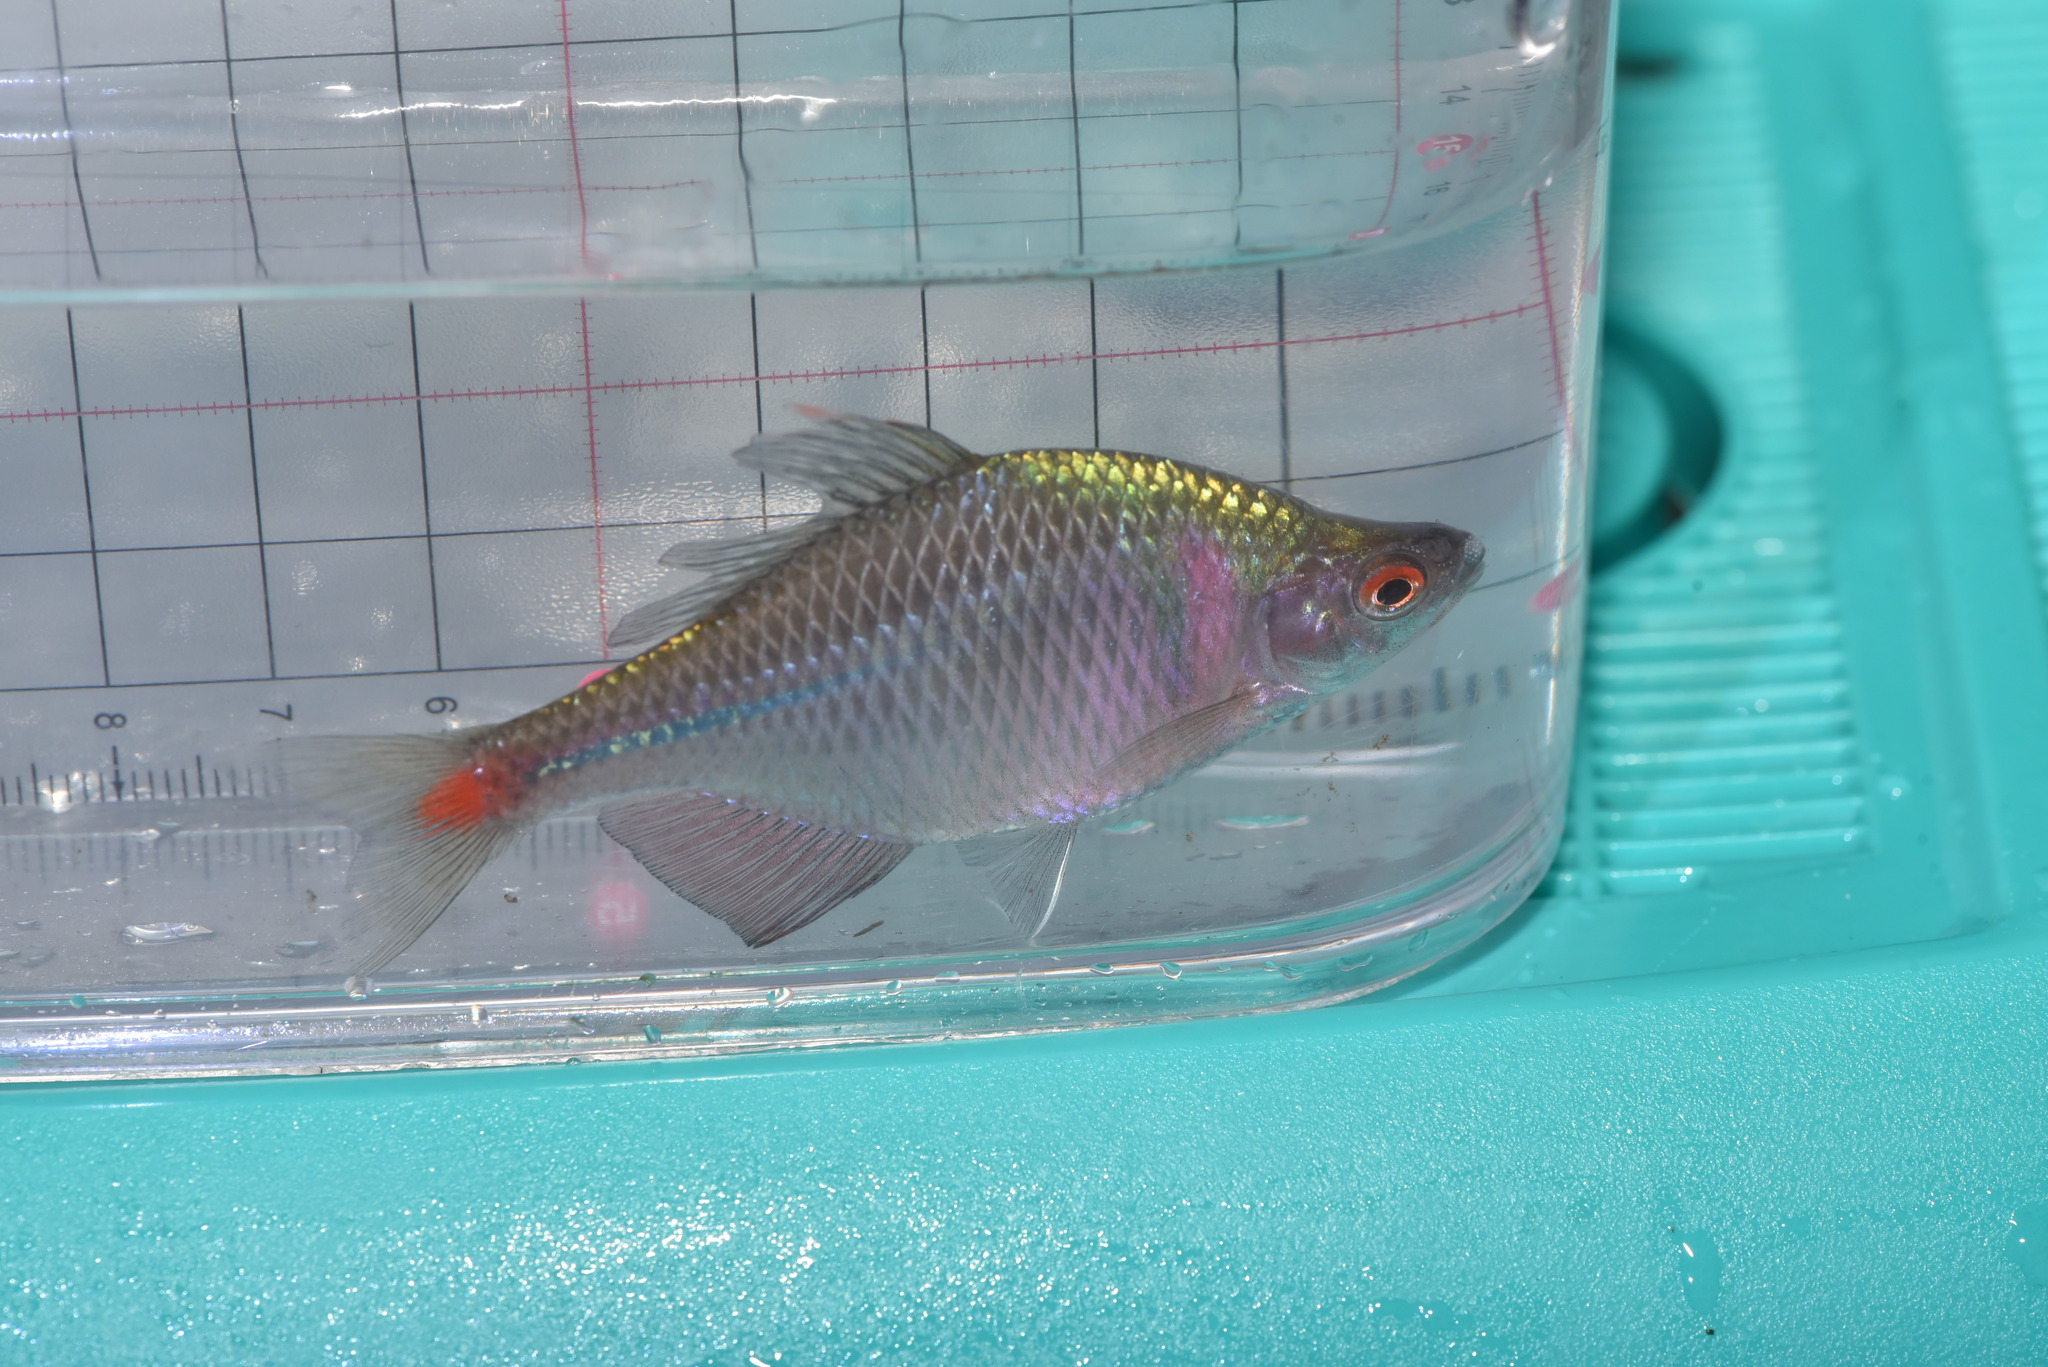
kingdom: Animalia
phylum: Chordata
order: Cypriniformes
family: Cyprinidae
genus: Rhodeus
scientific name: Rhodeus ocellatus
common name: Rose bitterling
